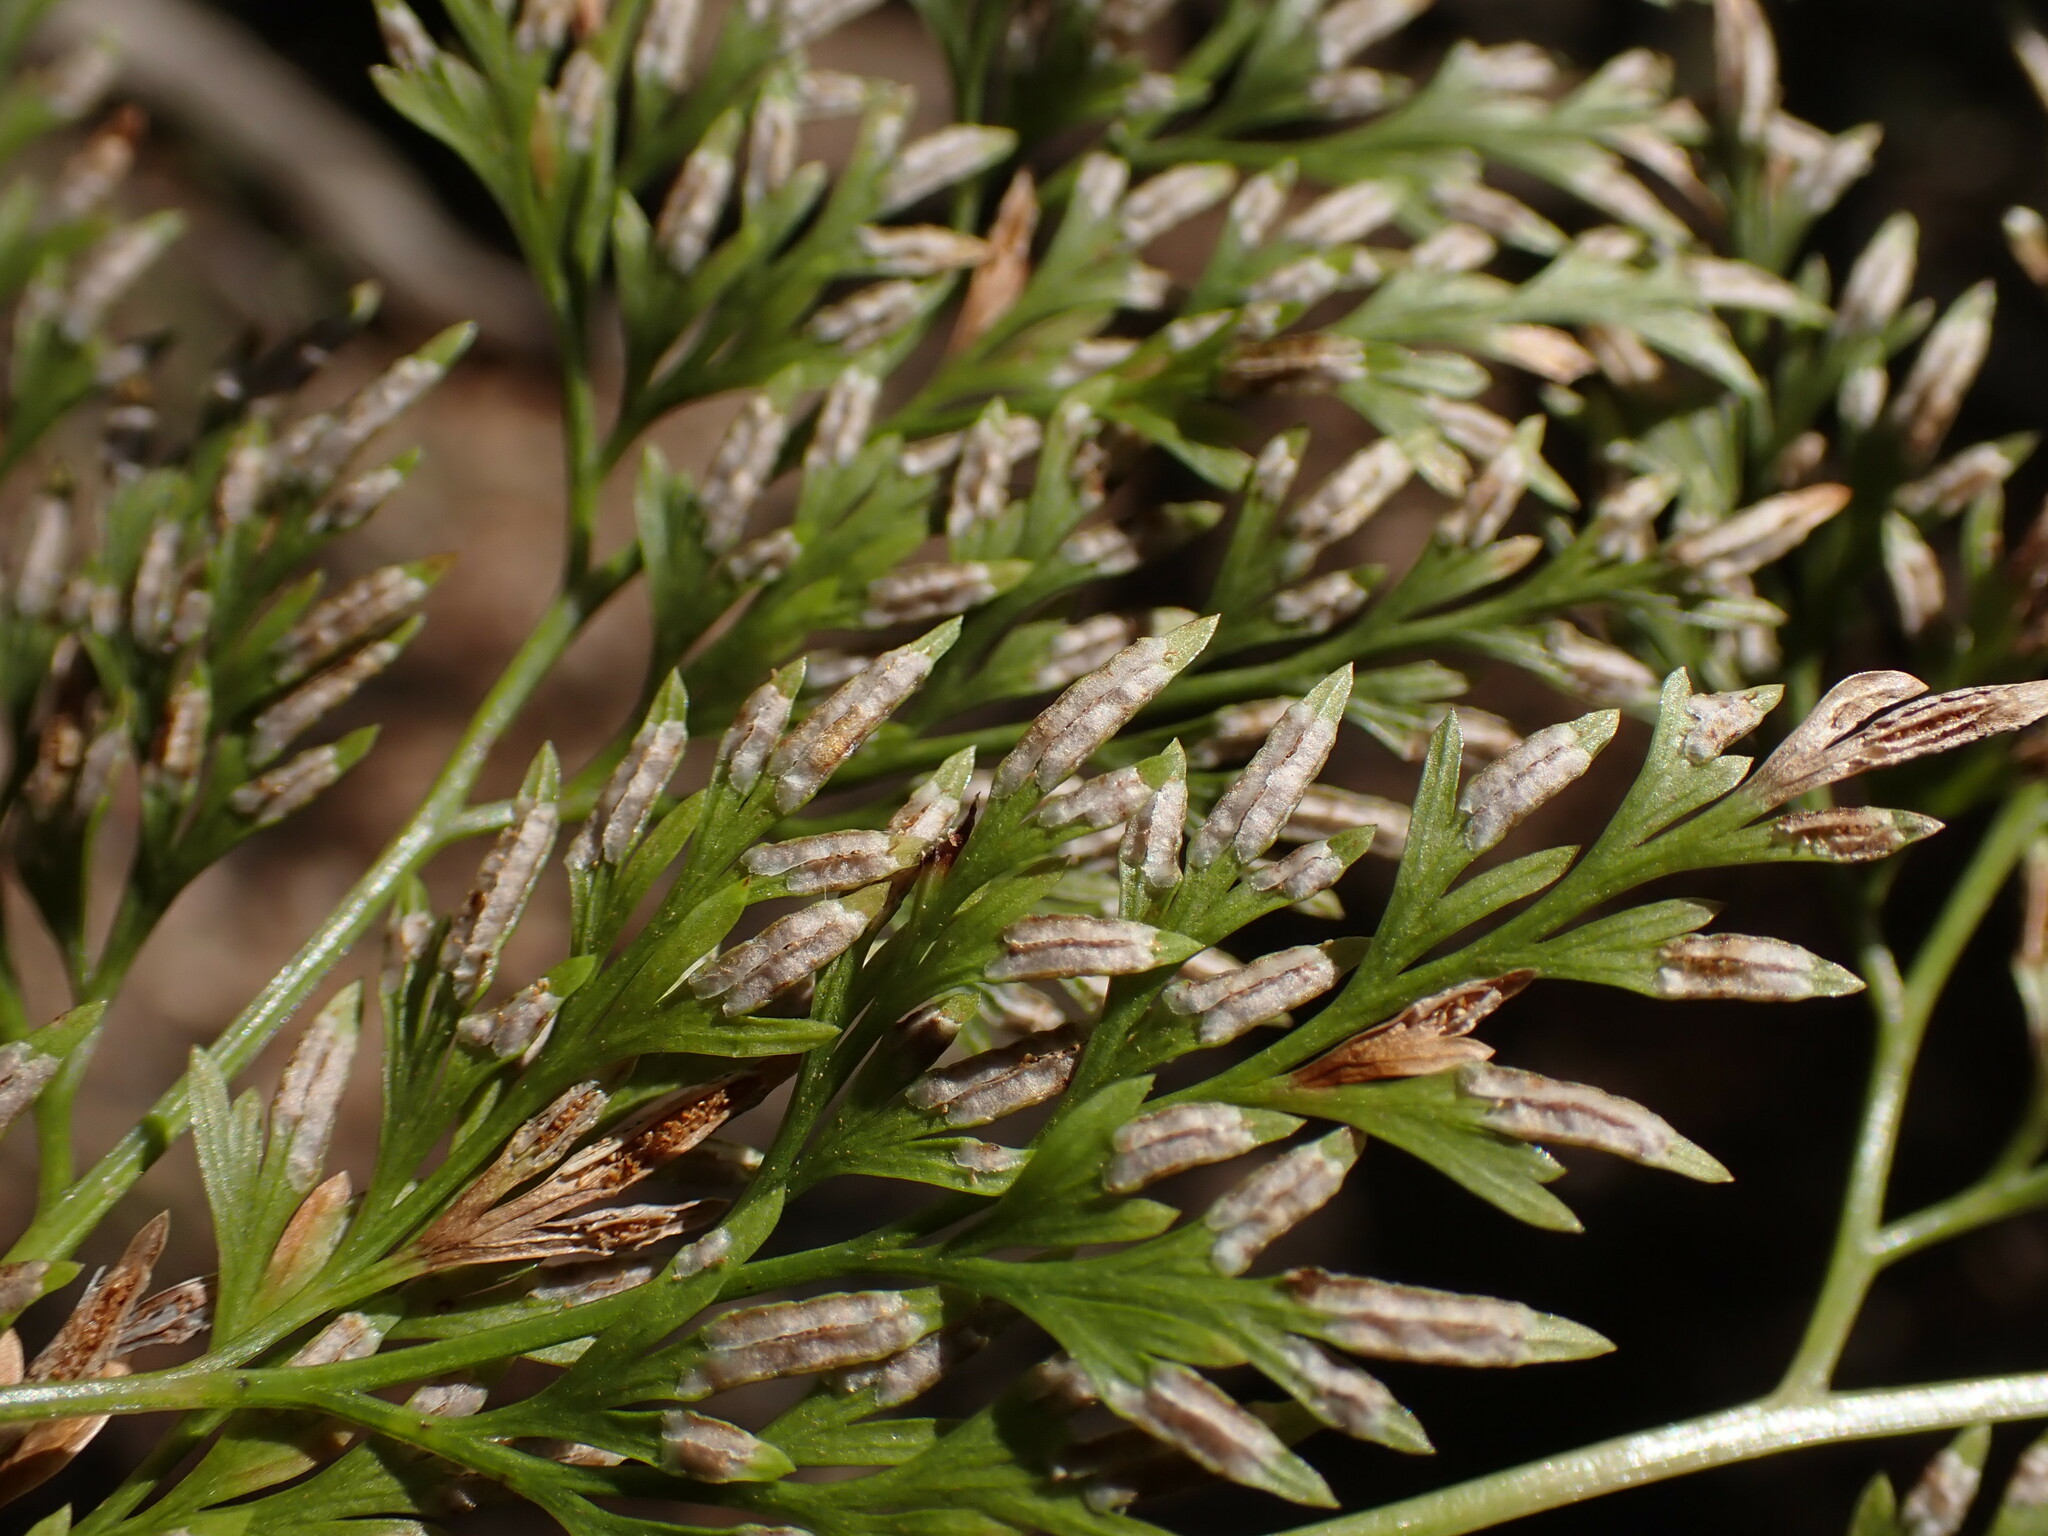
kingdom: Plantae
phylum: Tracheophyta
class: Polypodiopsida
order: Polypodiales
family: Pteridaceae
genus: Onychium
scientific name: Onychium japonicum
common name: Carrot fern
